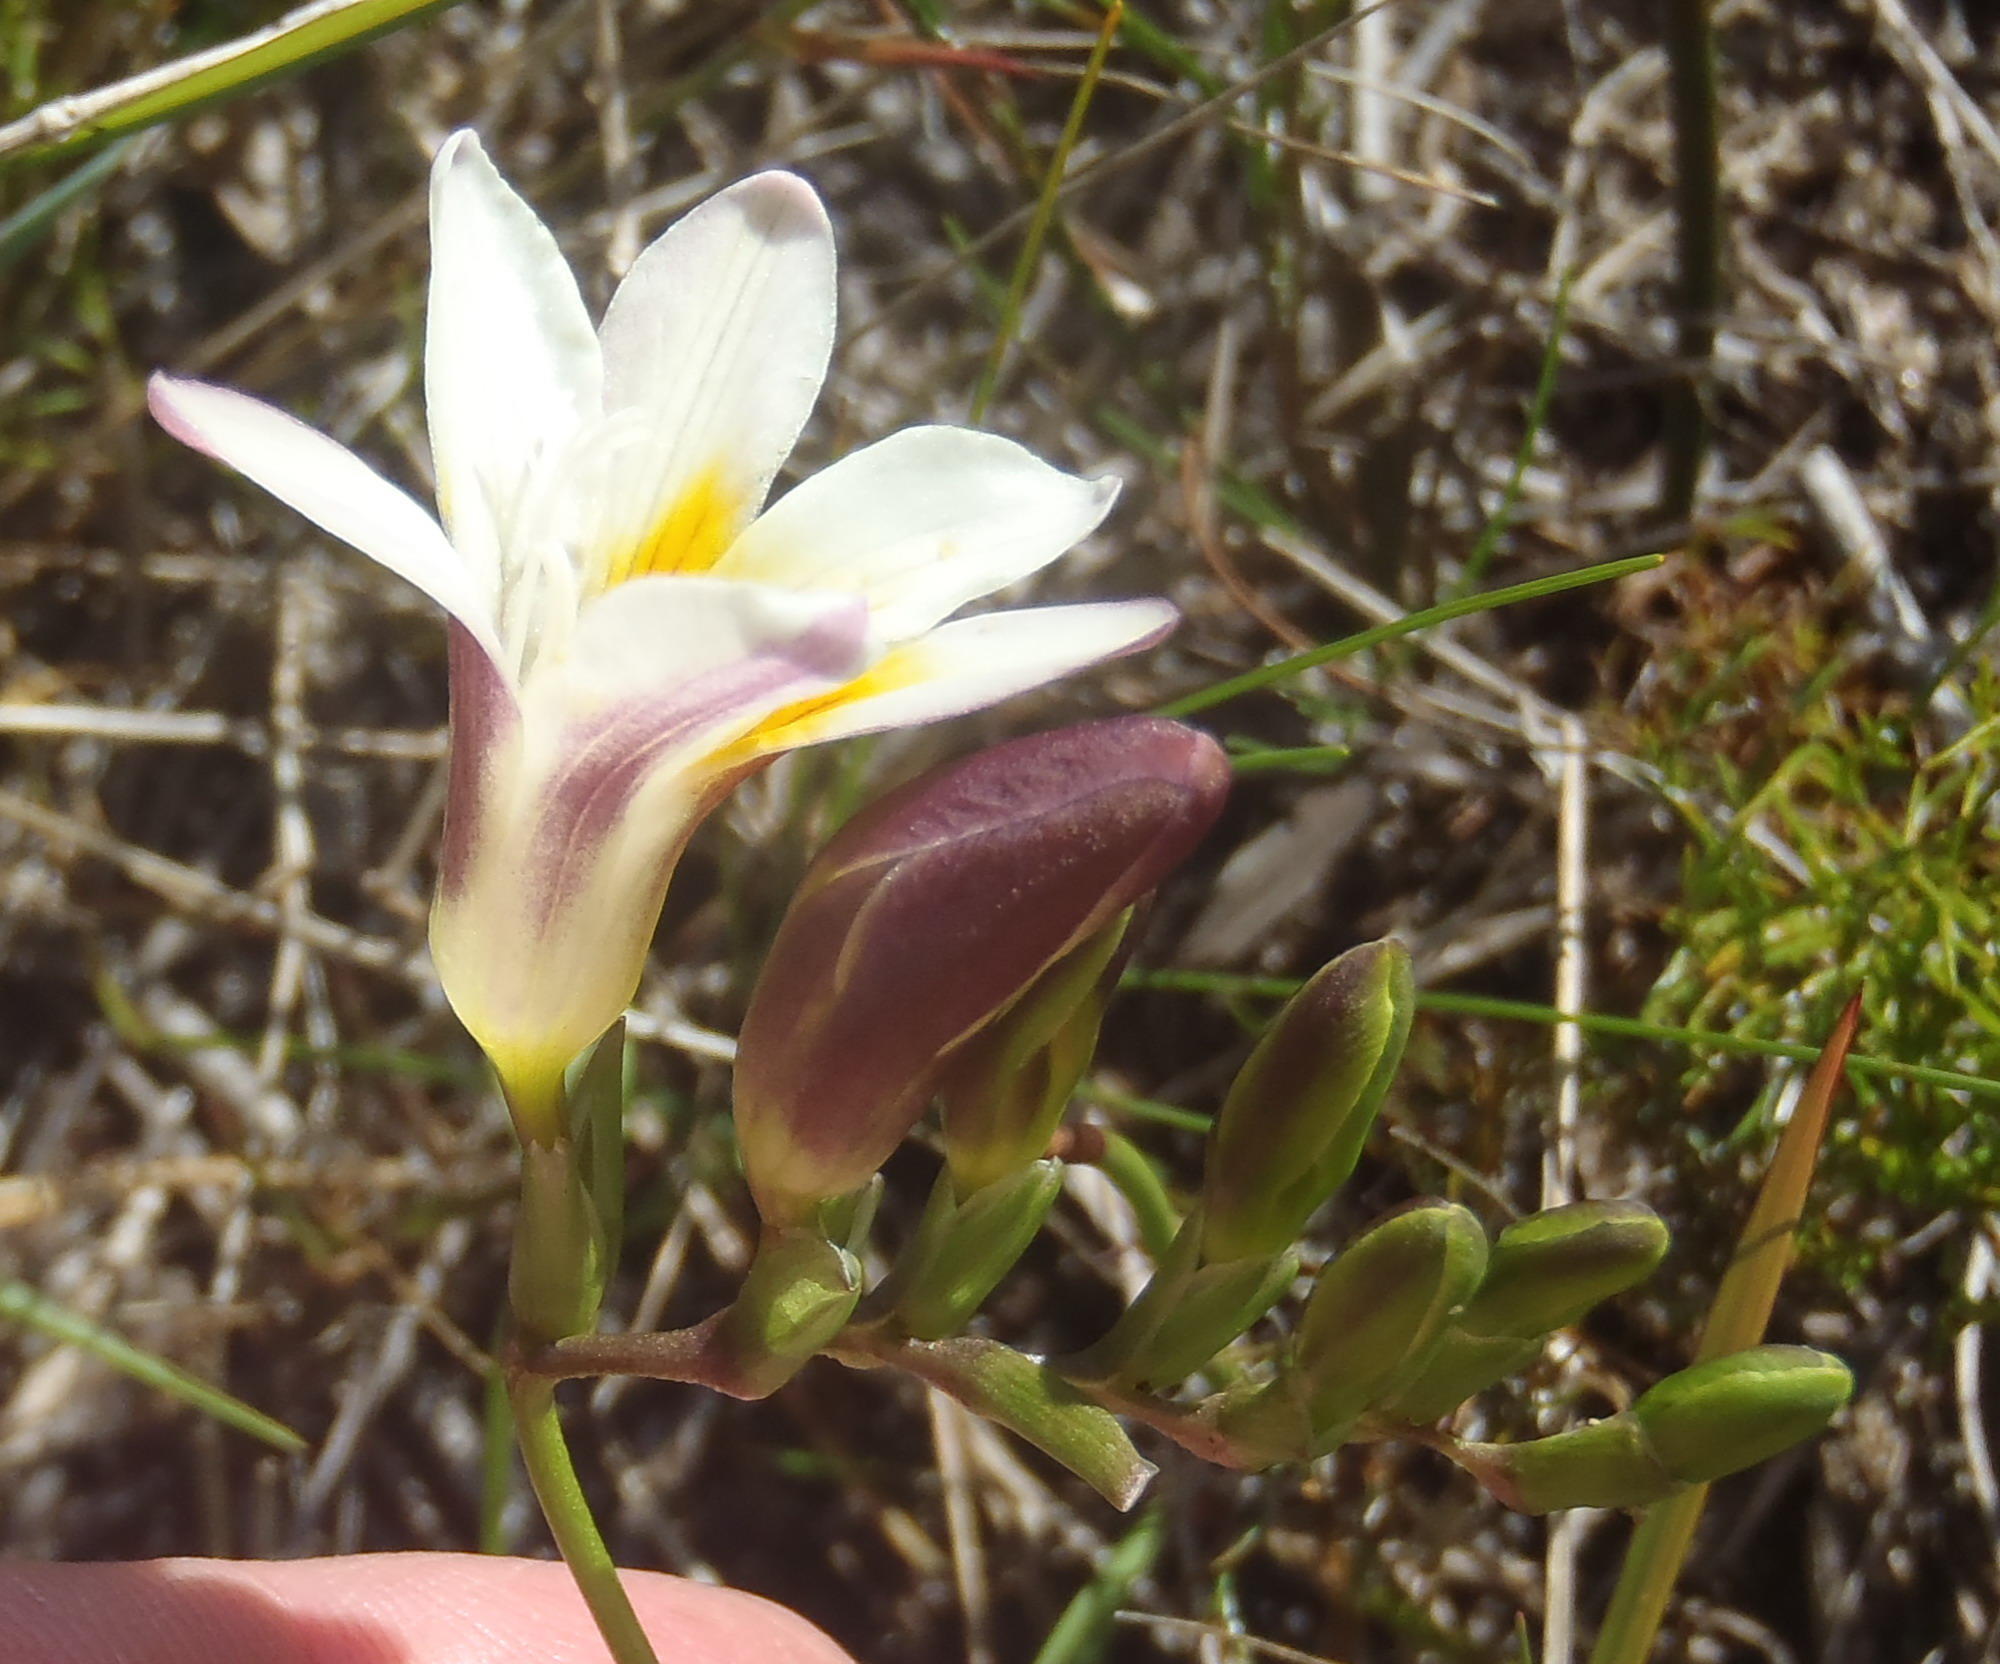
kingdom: Plantae
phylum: Tracheophyta
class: Liliopsida
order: Asparagales
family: Iridaceae
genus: Freesia
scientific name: Freesia leichtlinii
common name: Freesia
